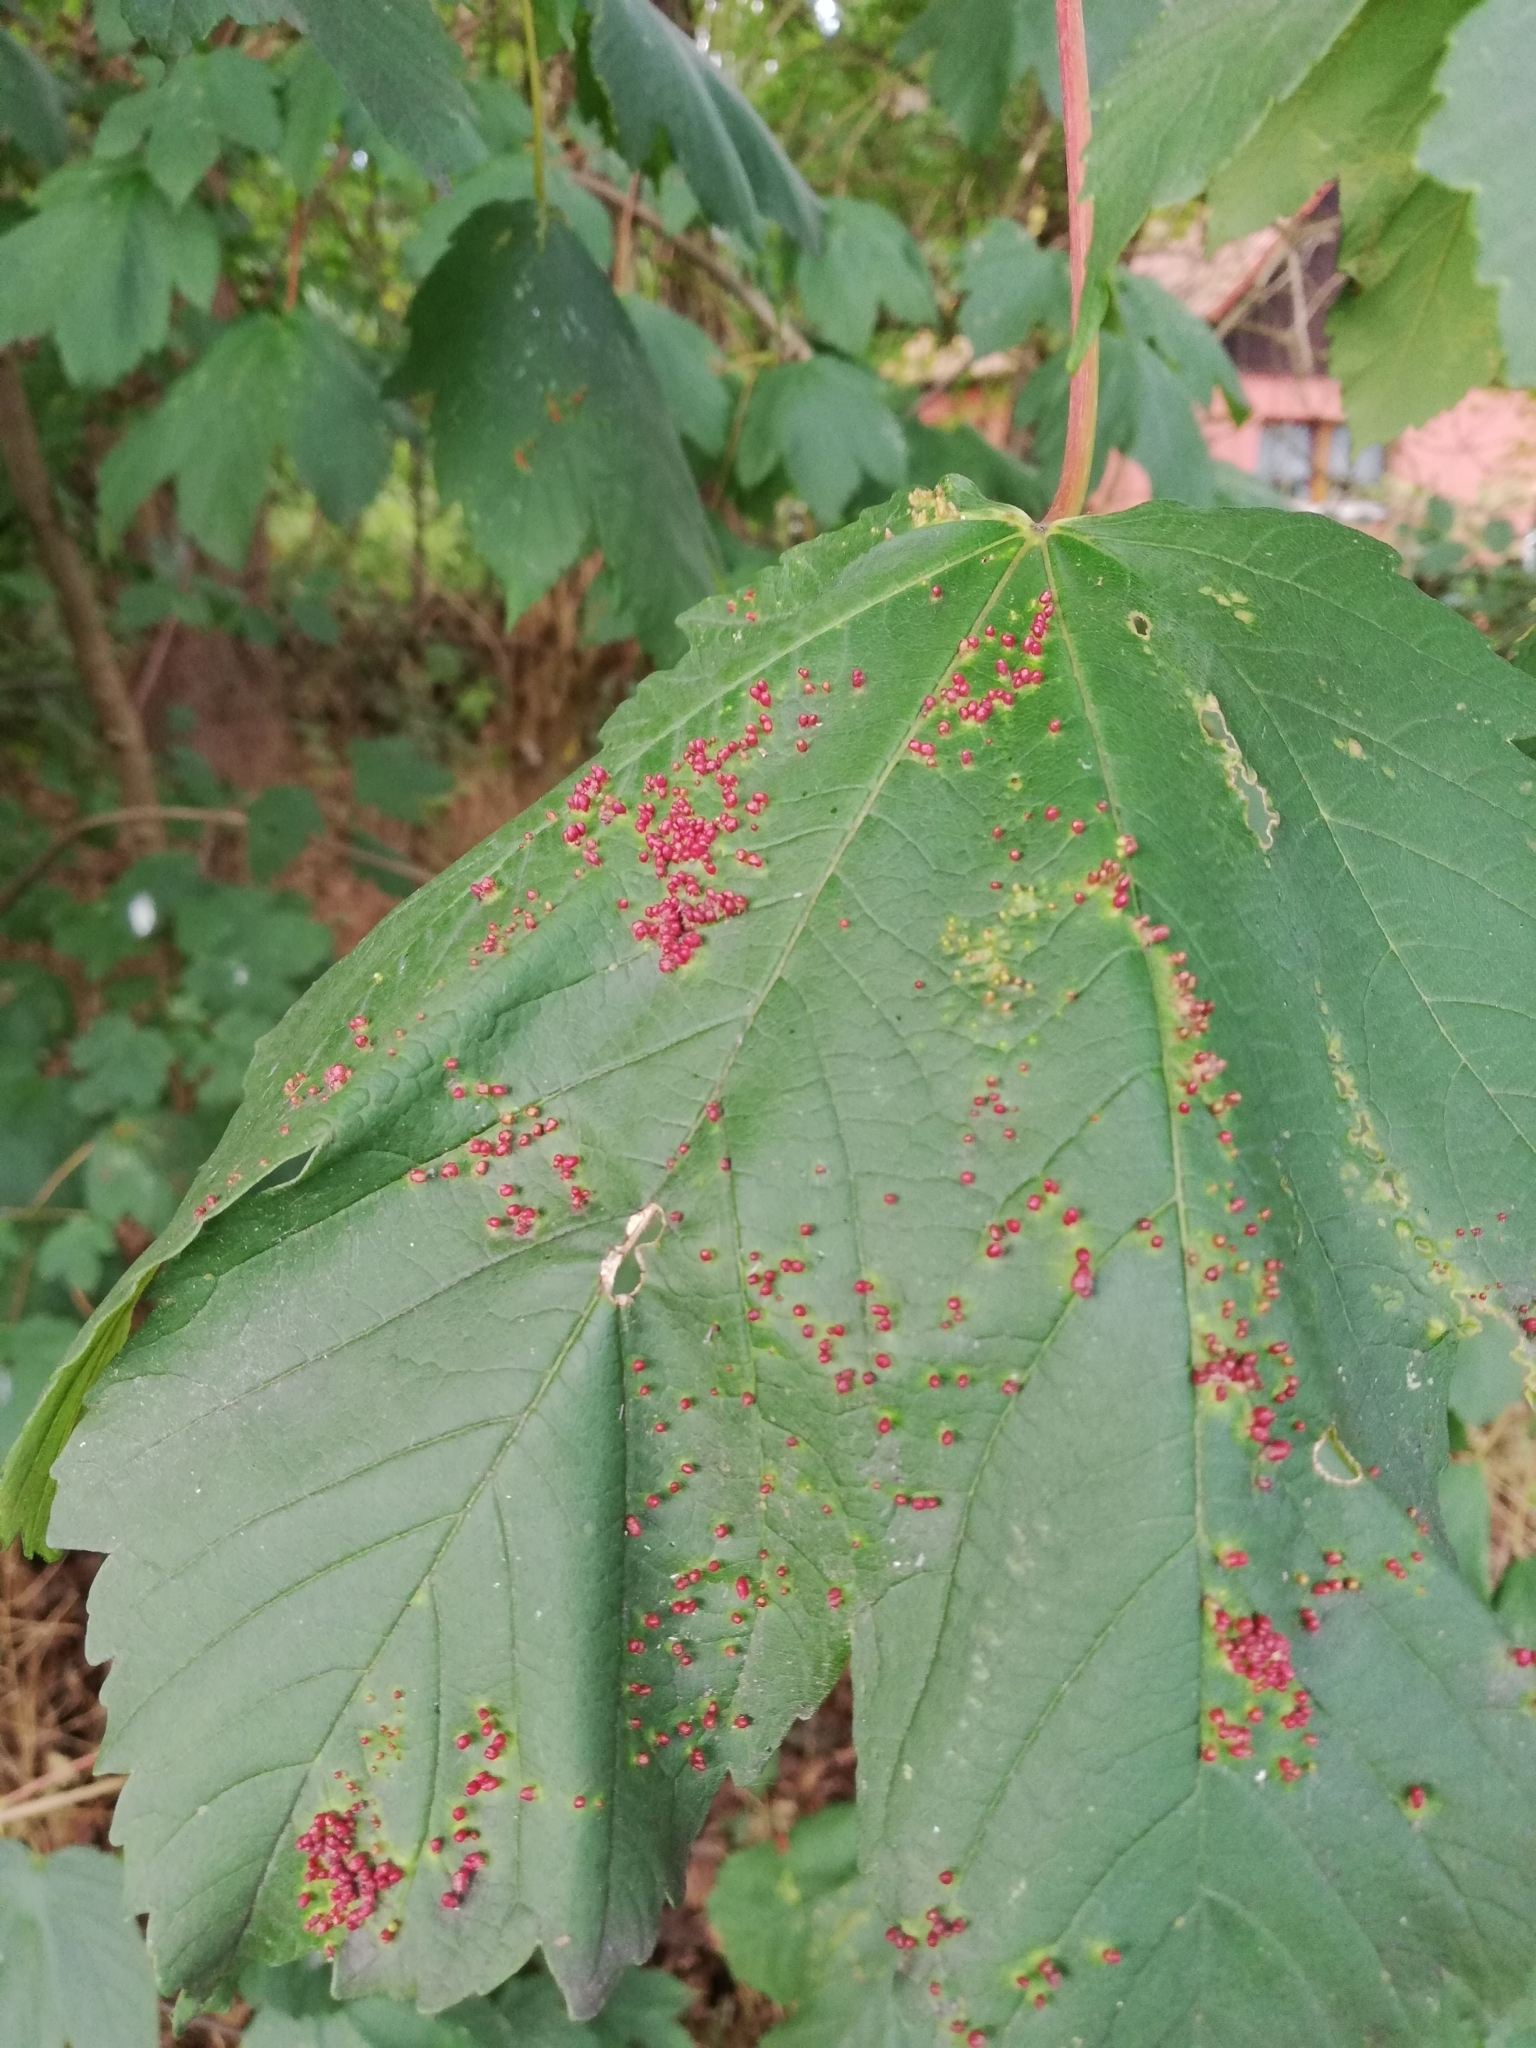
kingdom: Animalia
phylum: Arthropoda
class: Arachnida
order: Trombidiformes
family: Eriophyidae
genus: Aceria
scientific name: Aceria cephaloneus
